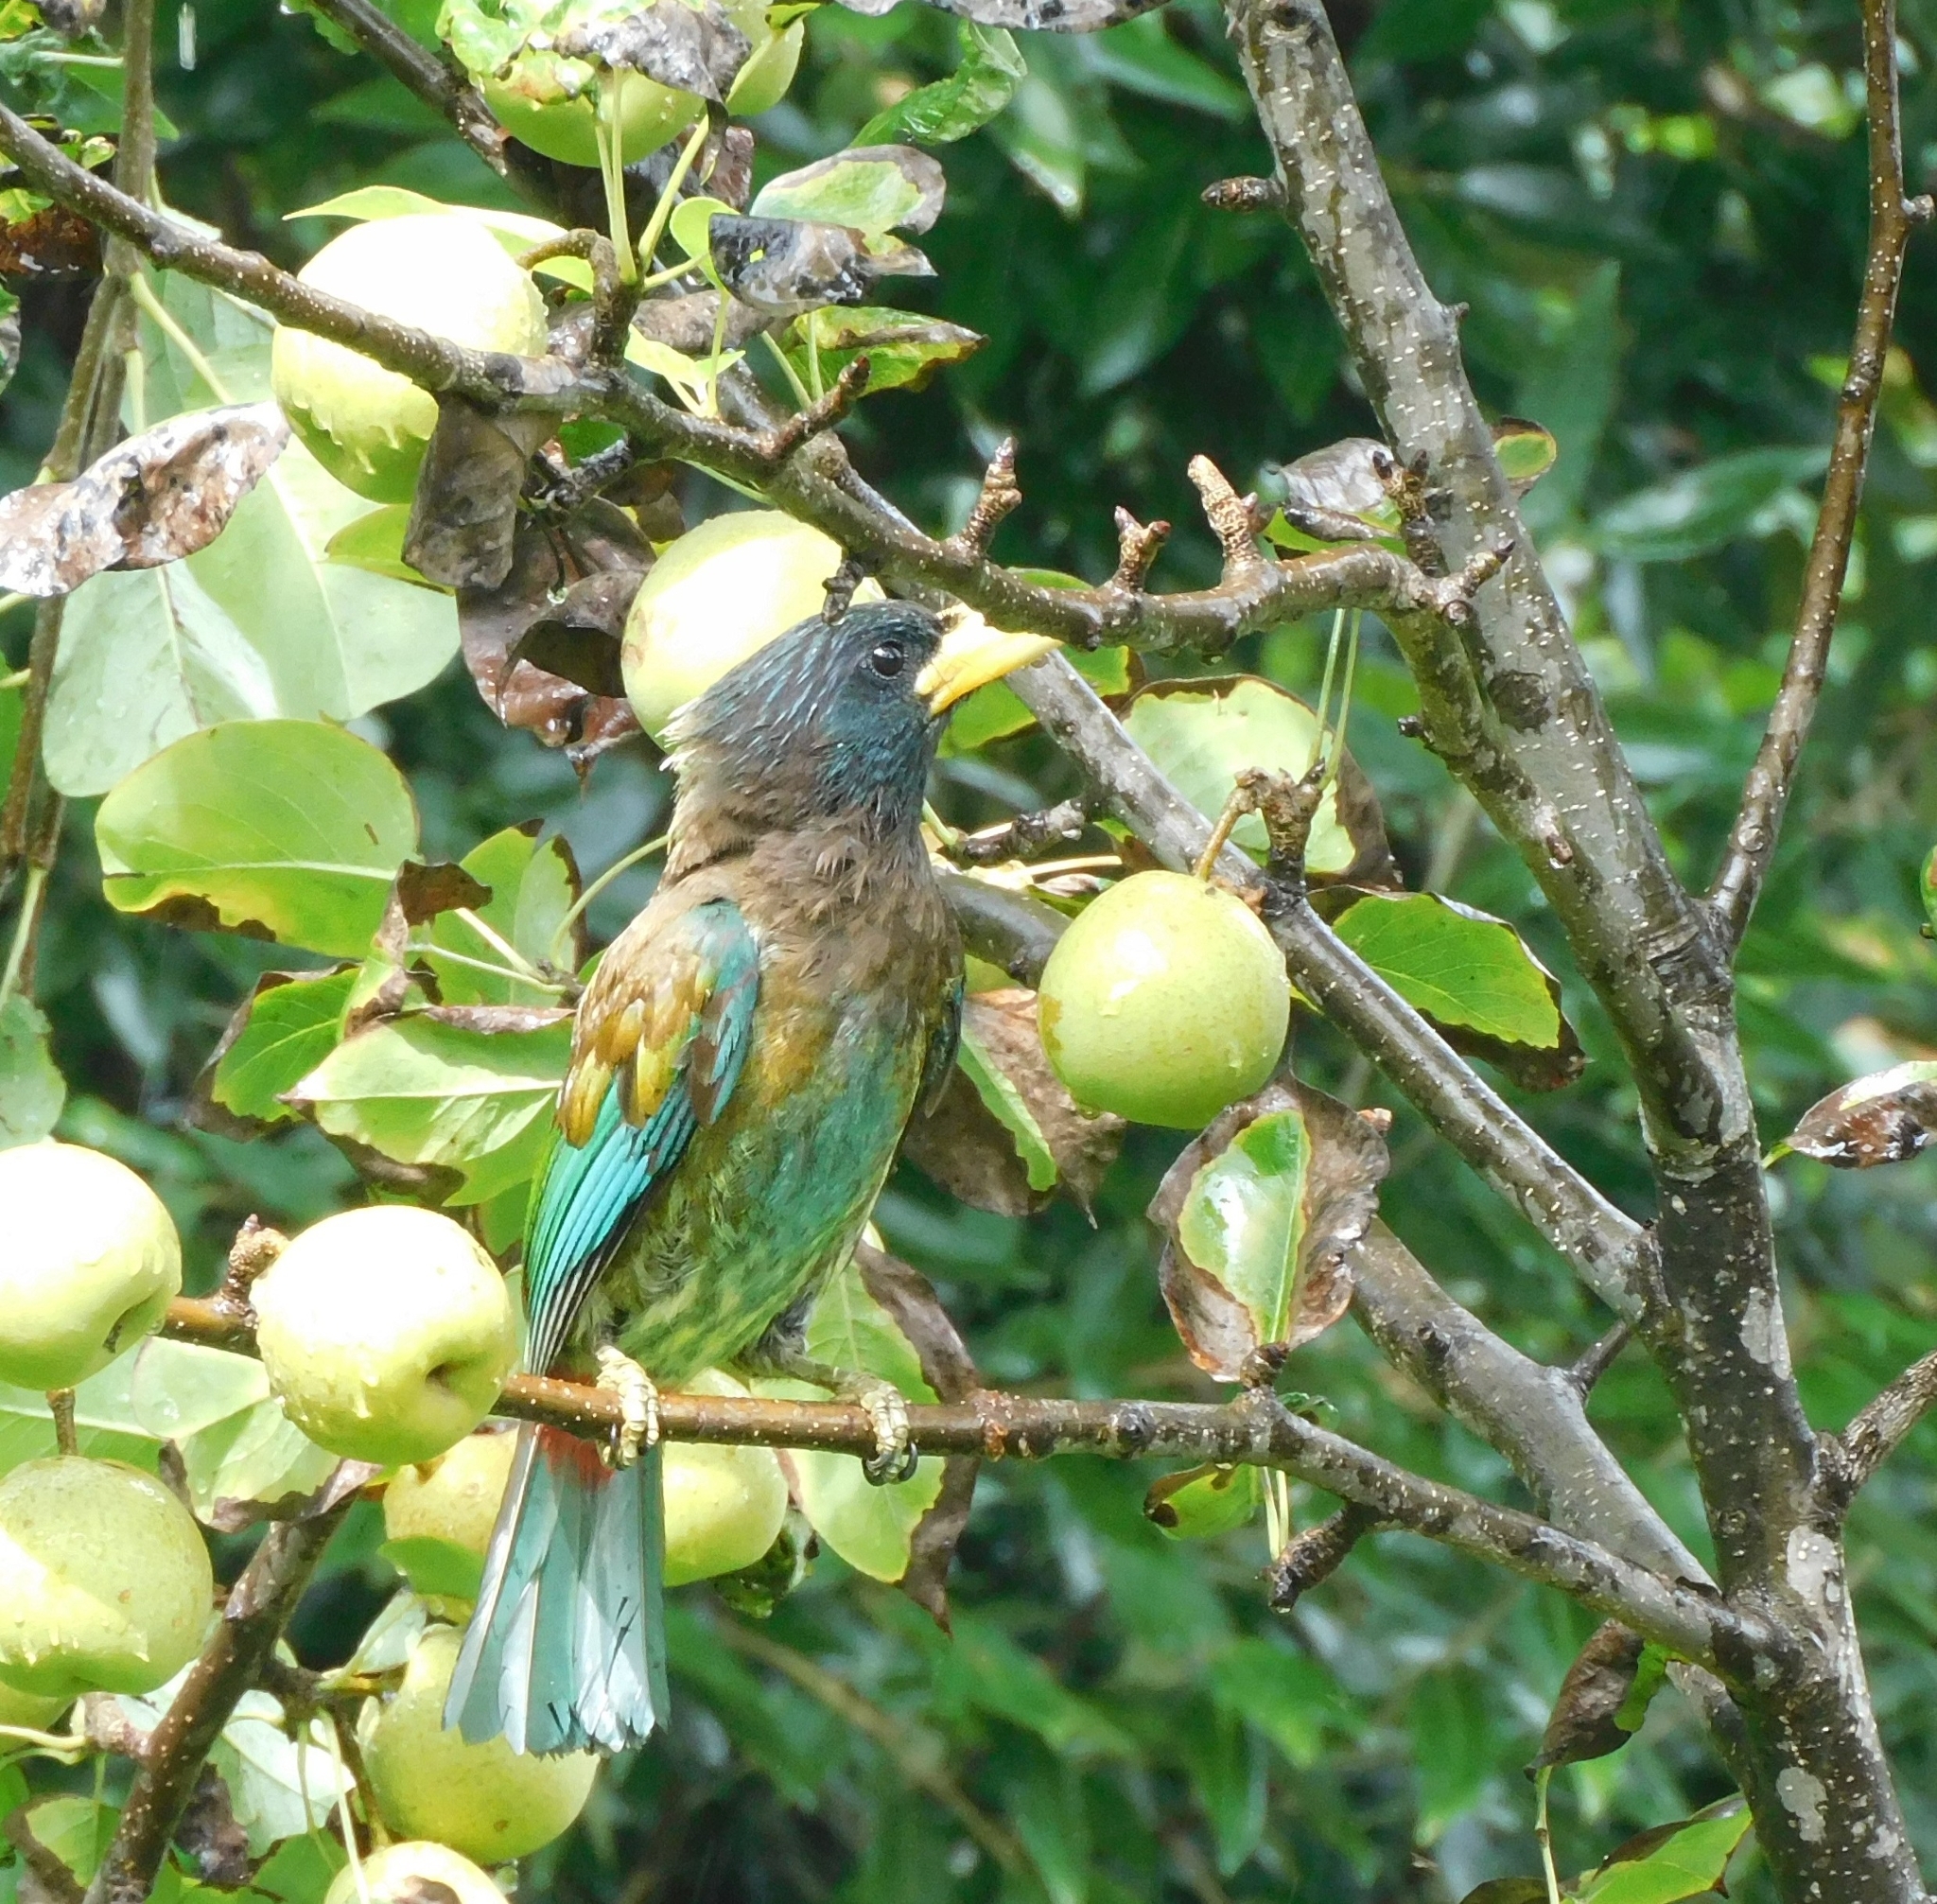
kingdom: Animalia
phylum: Chordata
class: Aves
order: Piciformes
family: Megalaimidae
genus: Psilopogon
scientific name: Psilopogon virens
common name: Great barbet
